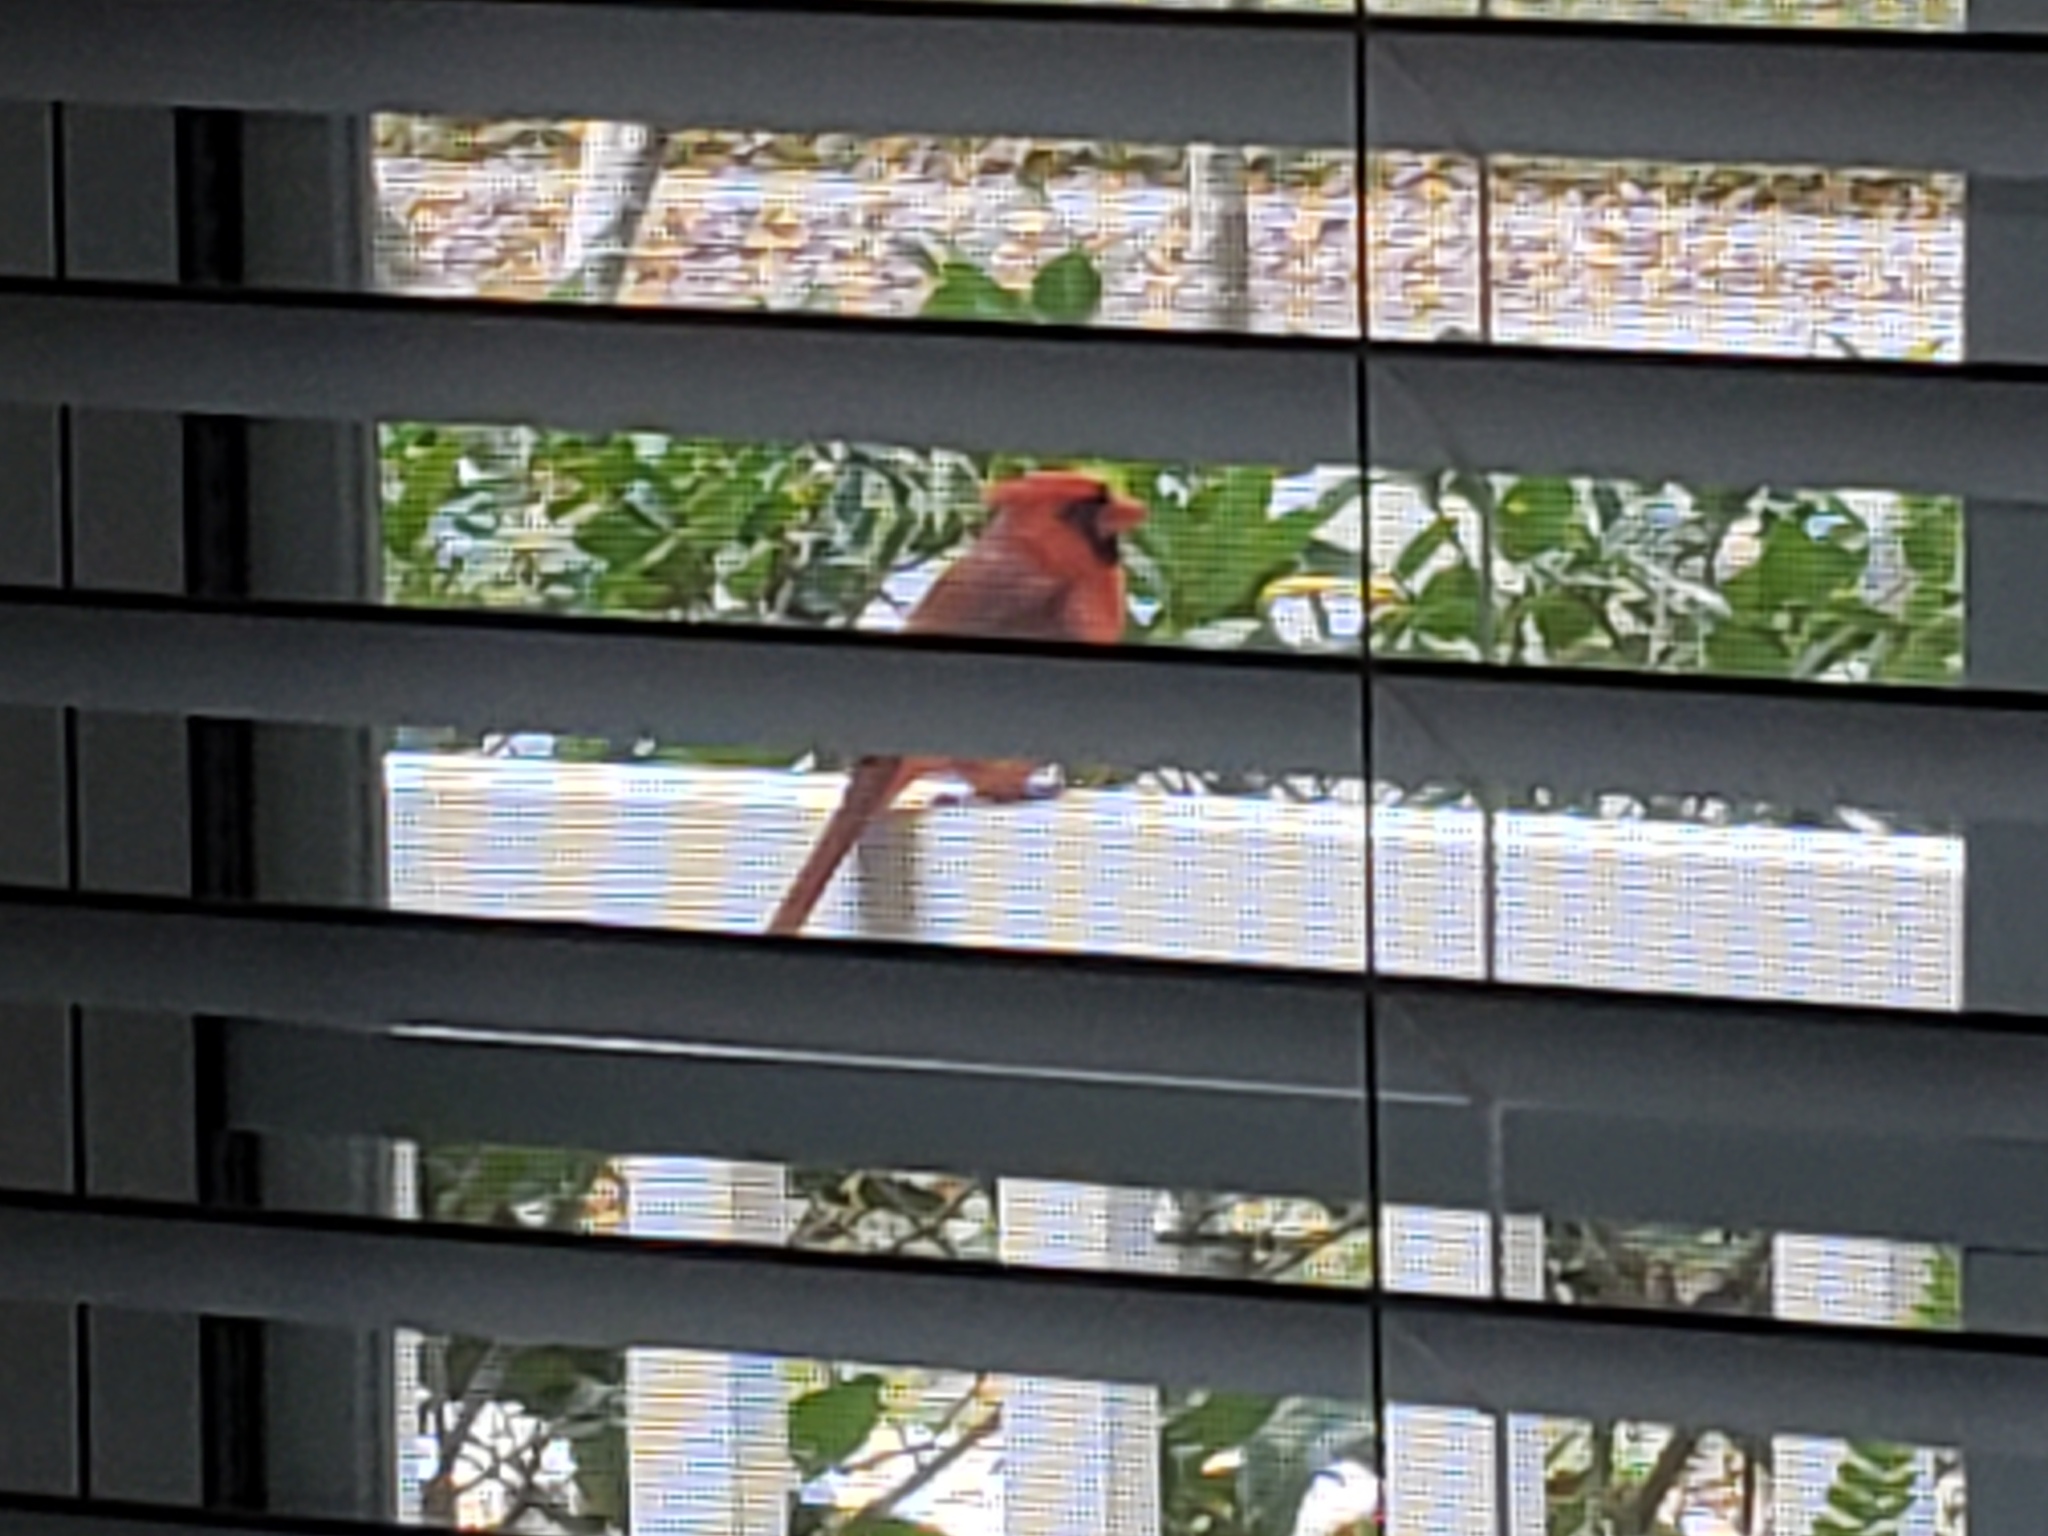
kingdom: Animalia
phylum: Chordata
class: Aves
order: Passeriformes
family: Cardinalidae
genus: Cardinalis
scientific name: Cardinalis cardinalis
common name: Northern cardinal
